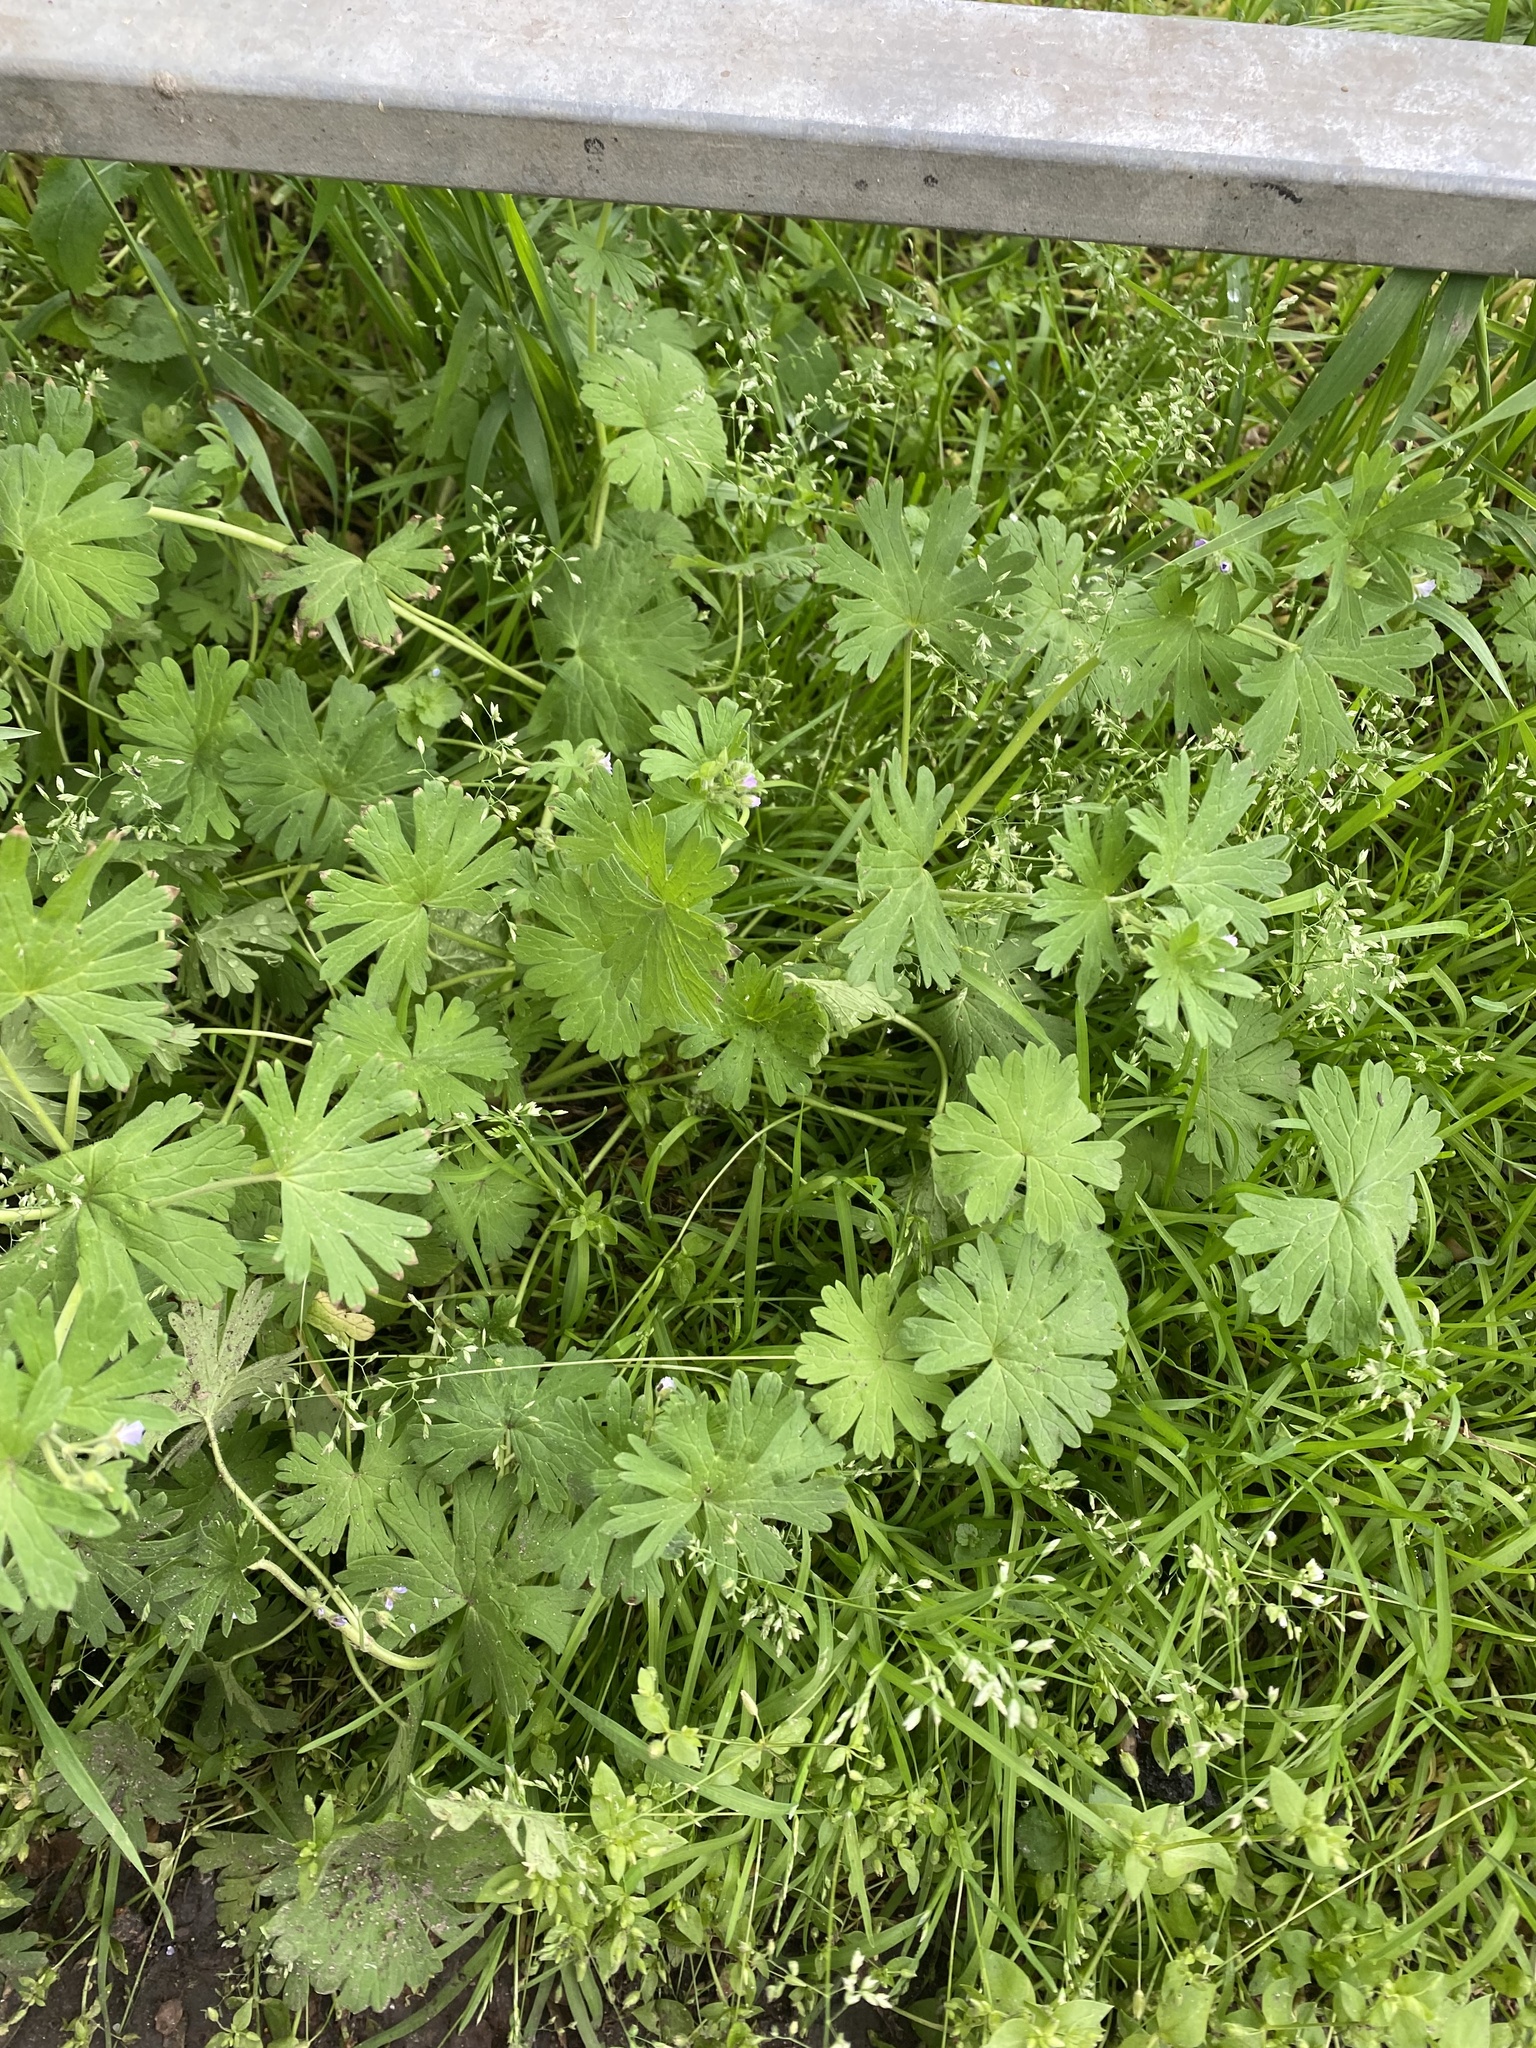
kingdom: Plantae
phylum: Tracheophyta
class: Magnoliopsida
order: Geraniales
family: Geraniaceae
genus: Geranium
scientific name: Geranium pusillum
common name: Small geranium
